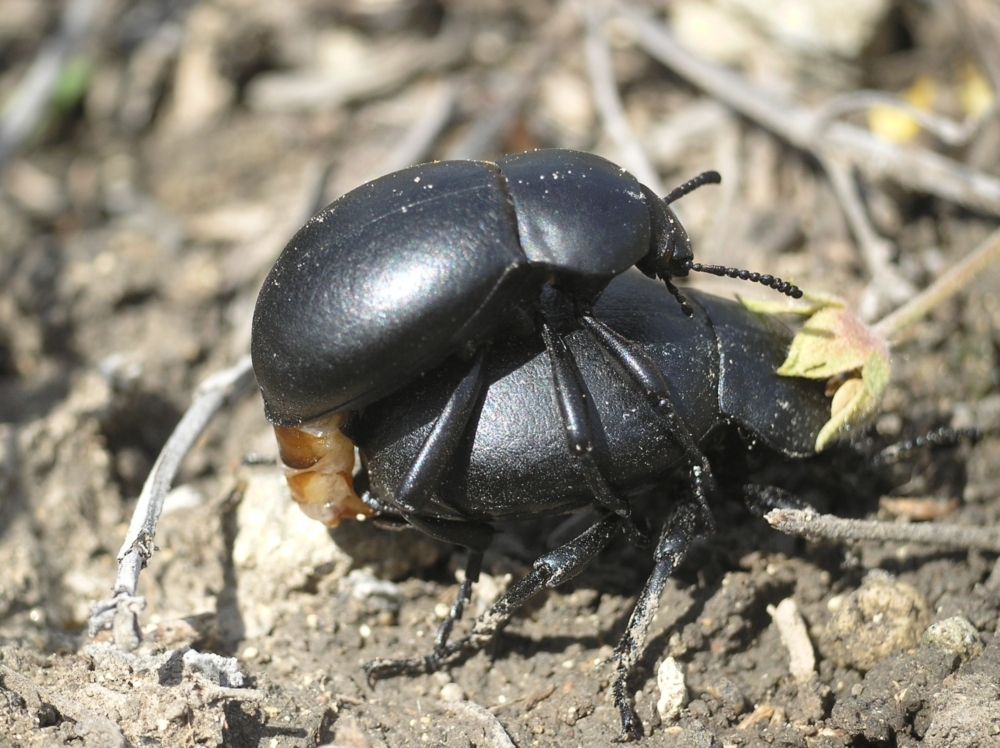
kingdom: Animalia
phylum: Arthropoda
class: Insecta
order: Coleoptera
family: Tenebrionidae
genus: Gnaptor
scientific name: Gnaptor spinimanus
